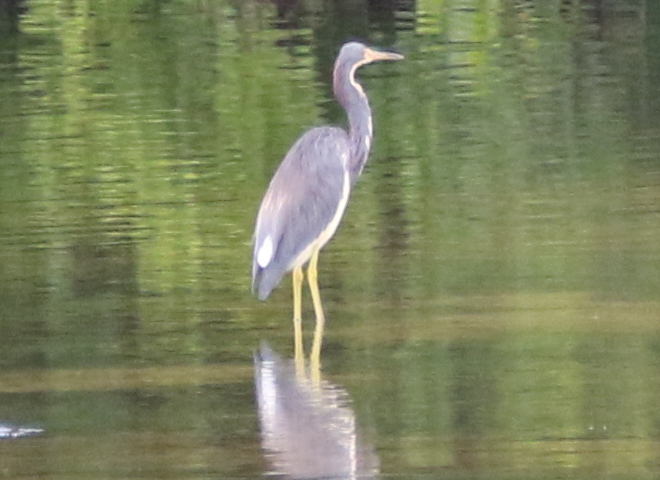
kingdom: Animalia
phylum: Chordata
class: Aves
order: Pelecaniformes
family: Ardeidae
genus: Egretta
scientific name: Egretta tricolor
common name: Tricolored heron
